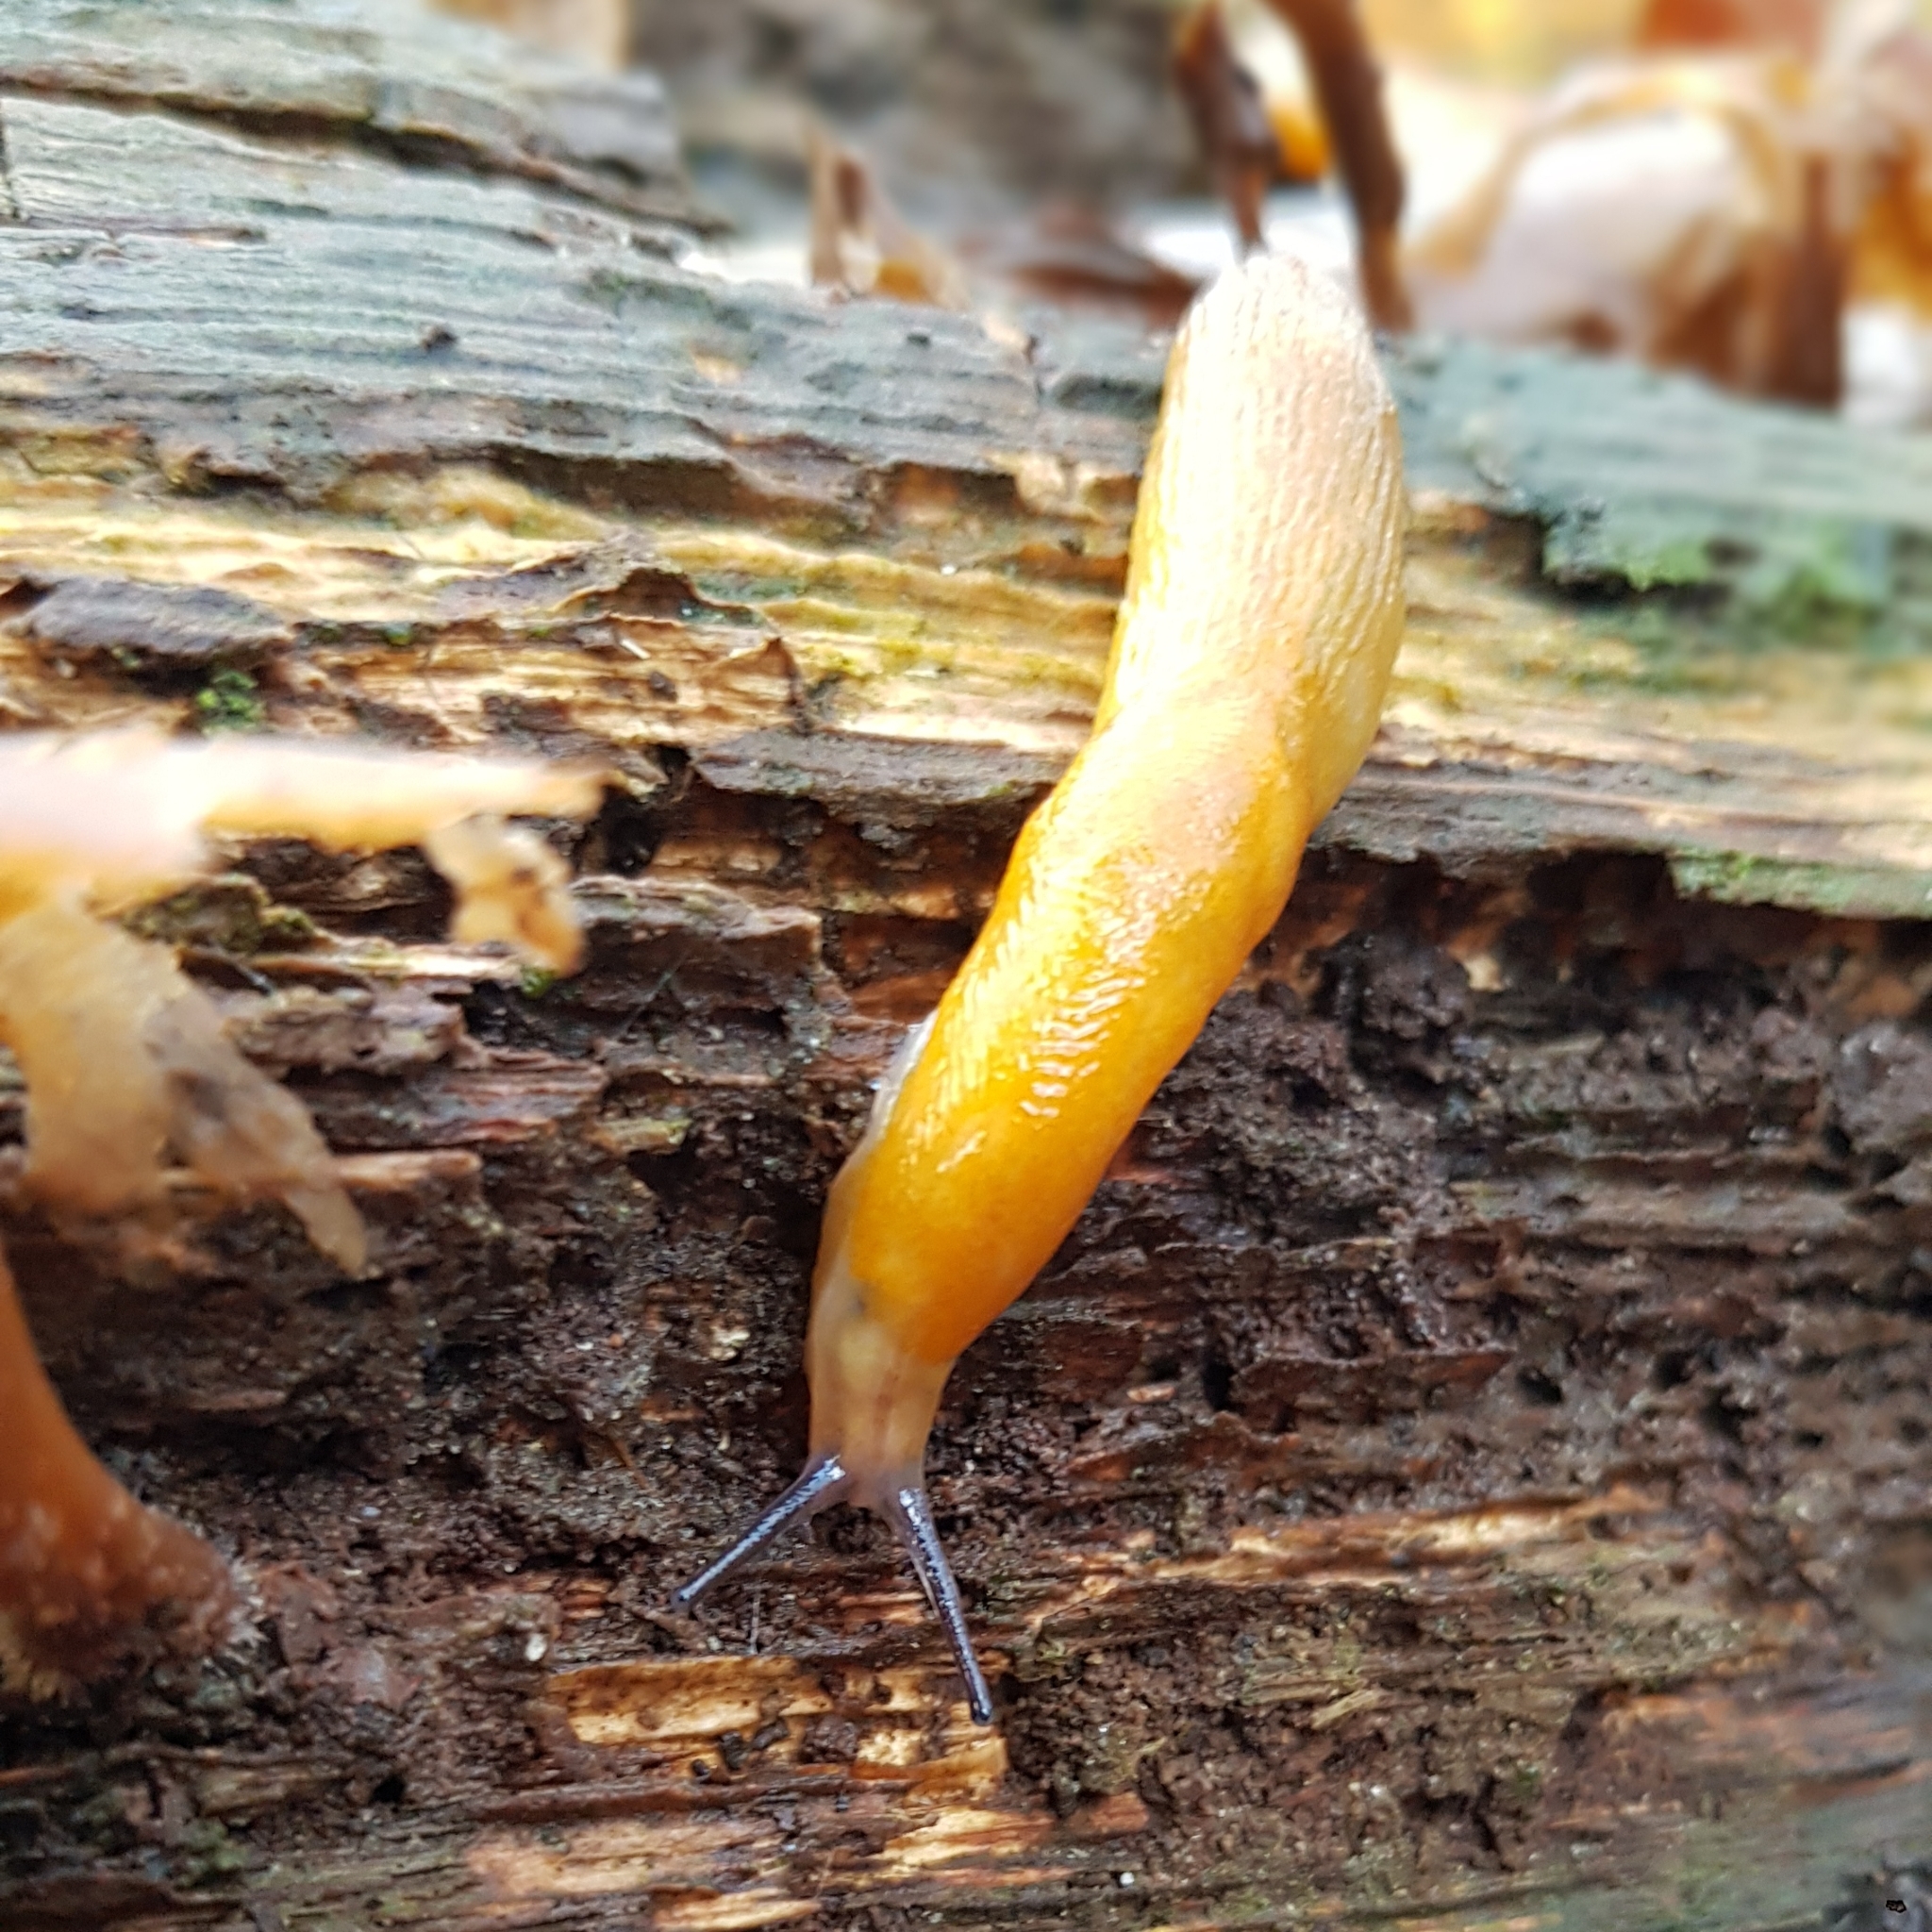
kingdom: Animalia
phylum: Mollusca
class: Gastropoda
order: Stylommatophora
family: Limacidae
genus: Malacolimax
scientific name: Malacolimax tenellus
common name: Lemon slug
